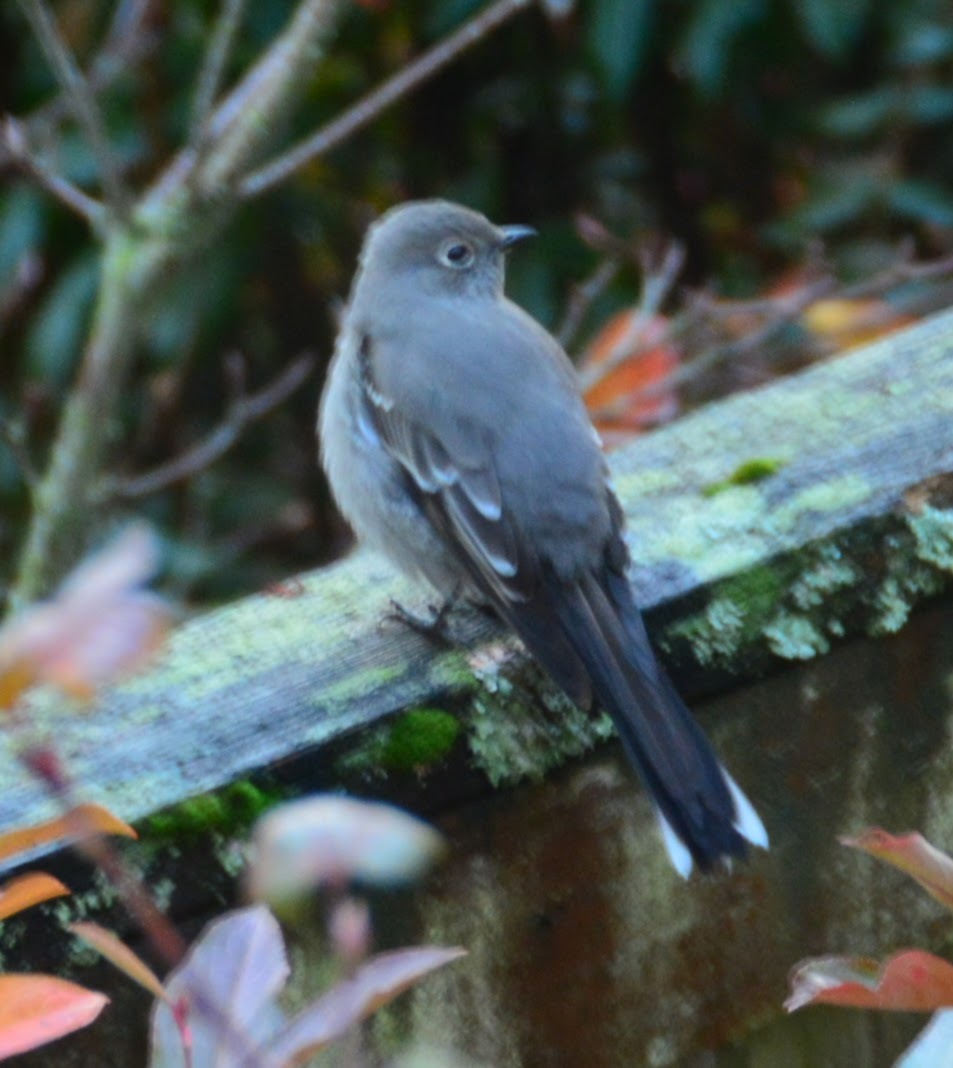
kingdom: Animalia
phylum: Chordata
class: Aves
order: Passeriformes
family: Turdidae
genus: Myadestes
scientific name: Myadestes townsendi
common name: Townsend's solitaire
